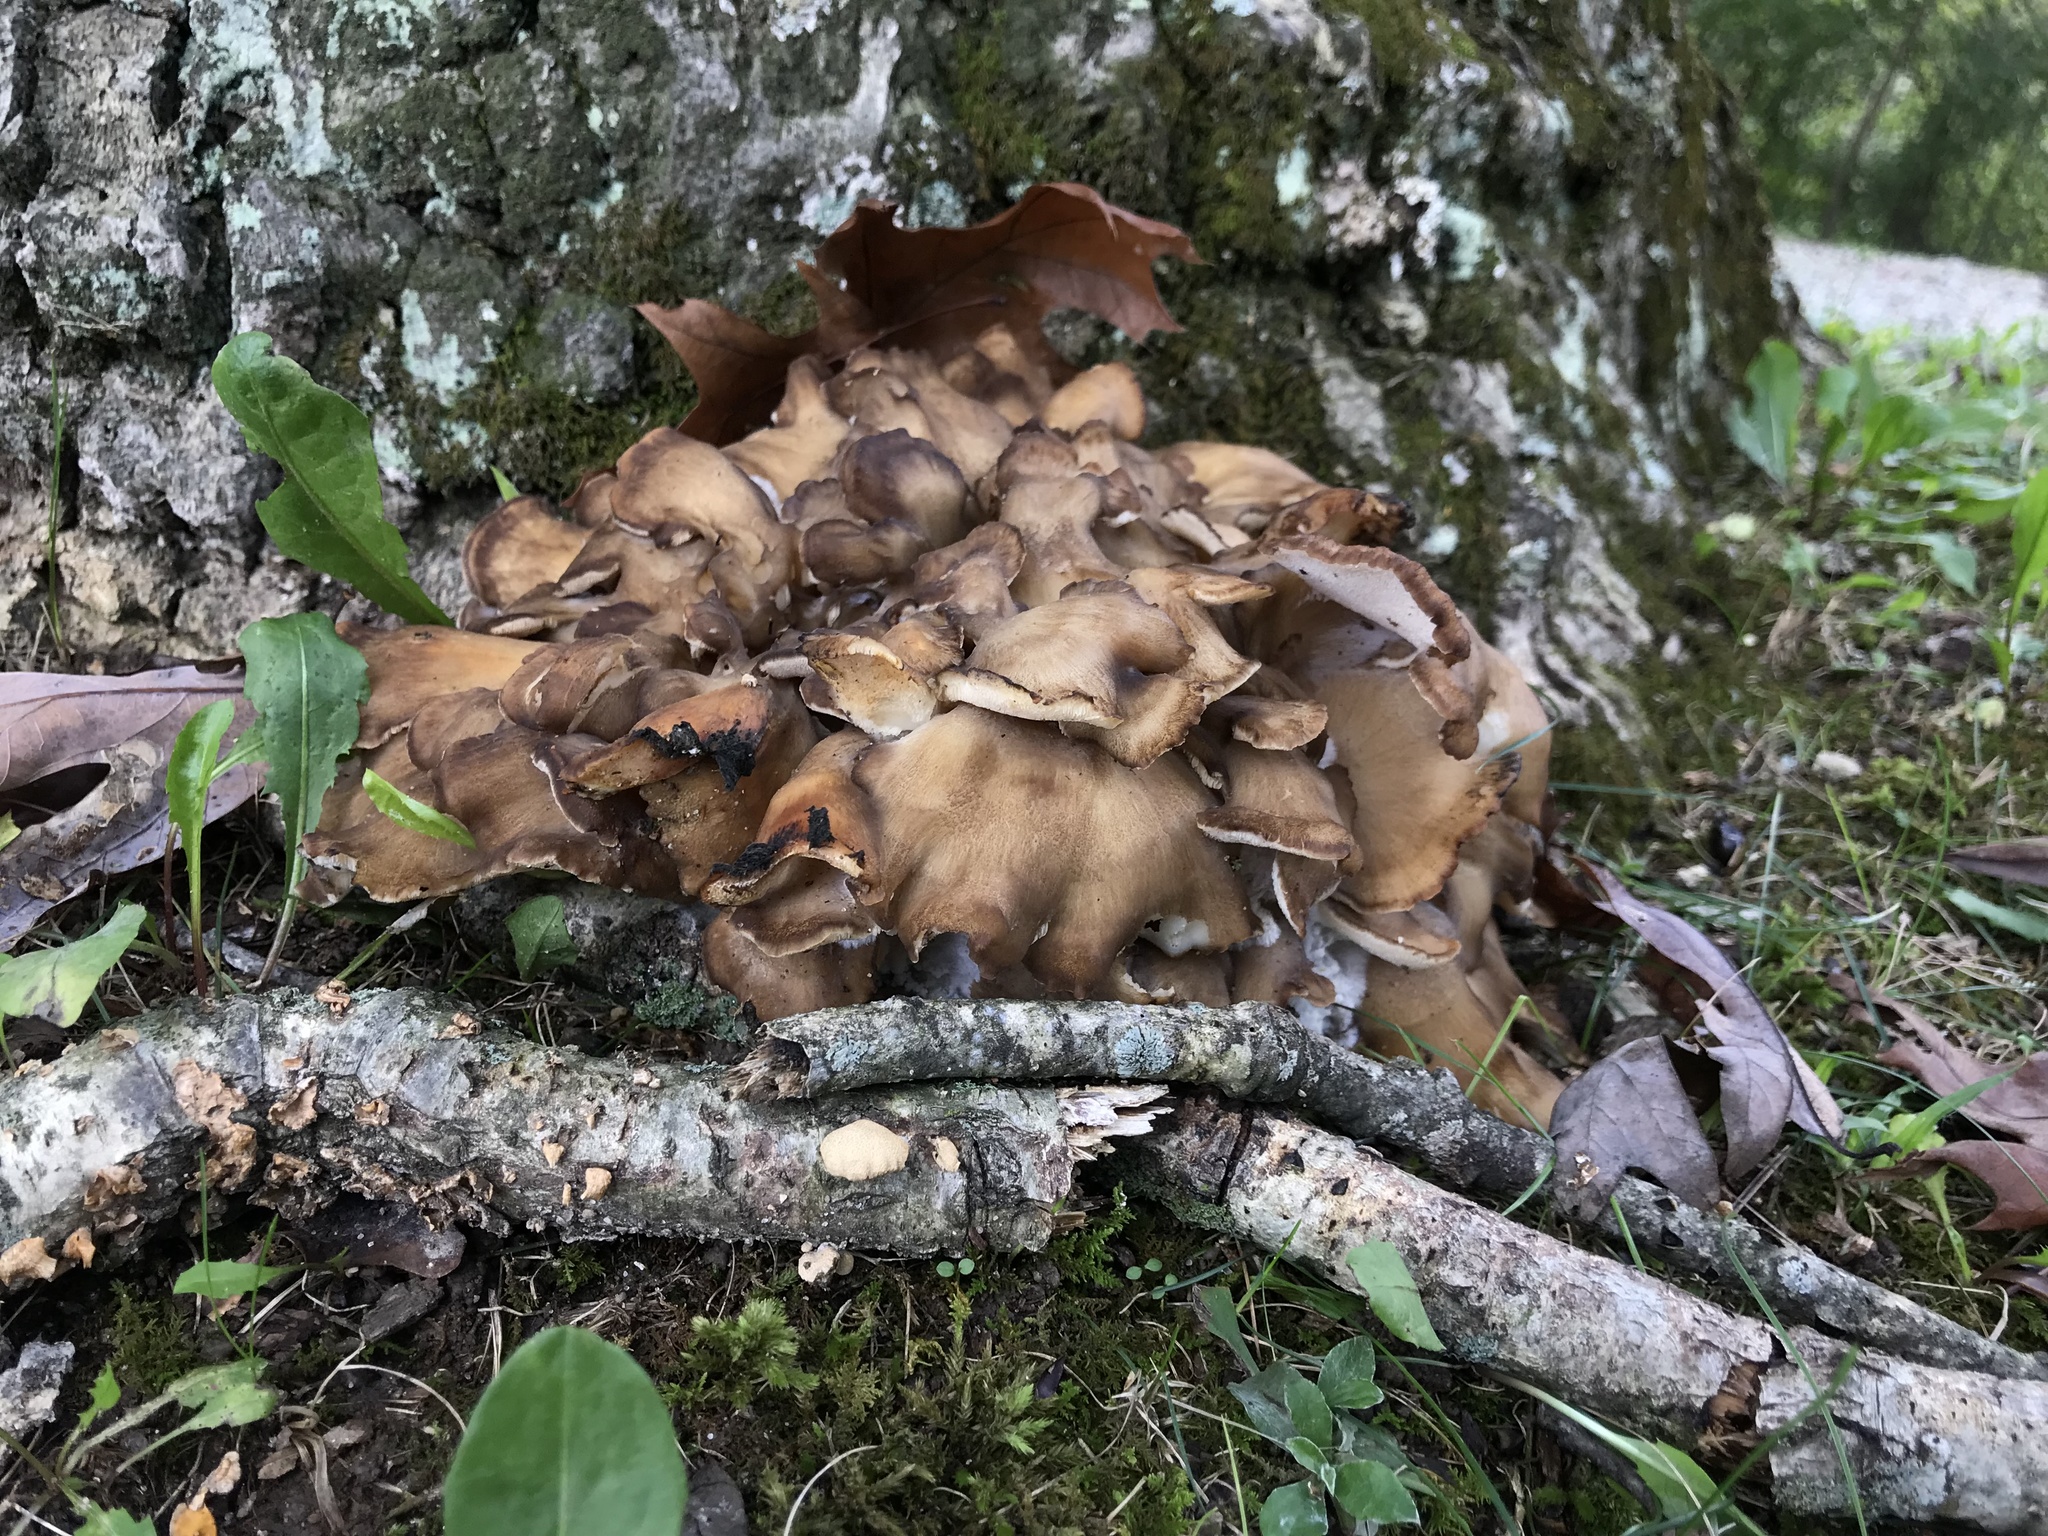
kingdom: Fungi
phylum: Basidiomycota
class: Agaricomycetes
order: Polyporales
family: Grifolaceae
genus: Grifola
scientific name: Grifola frondosa
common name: Hen of the woods
